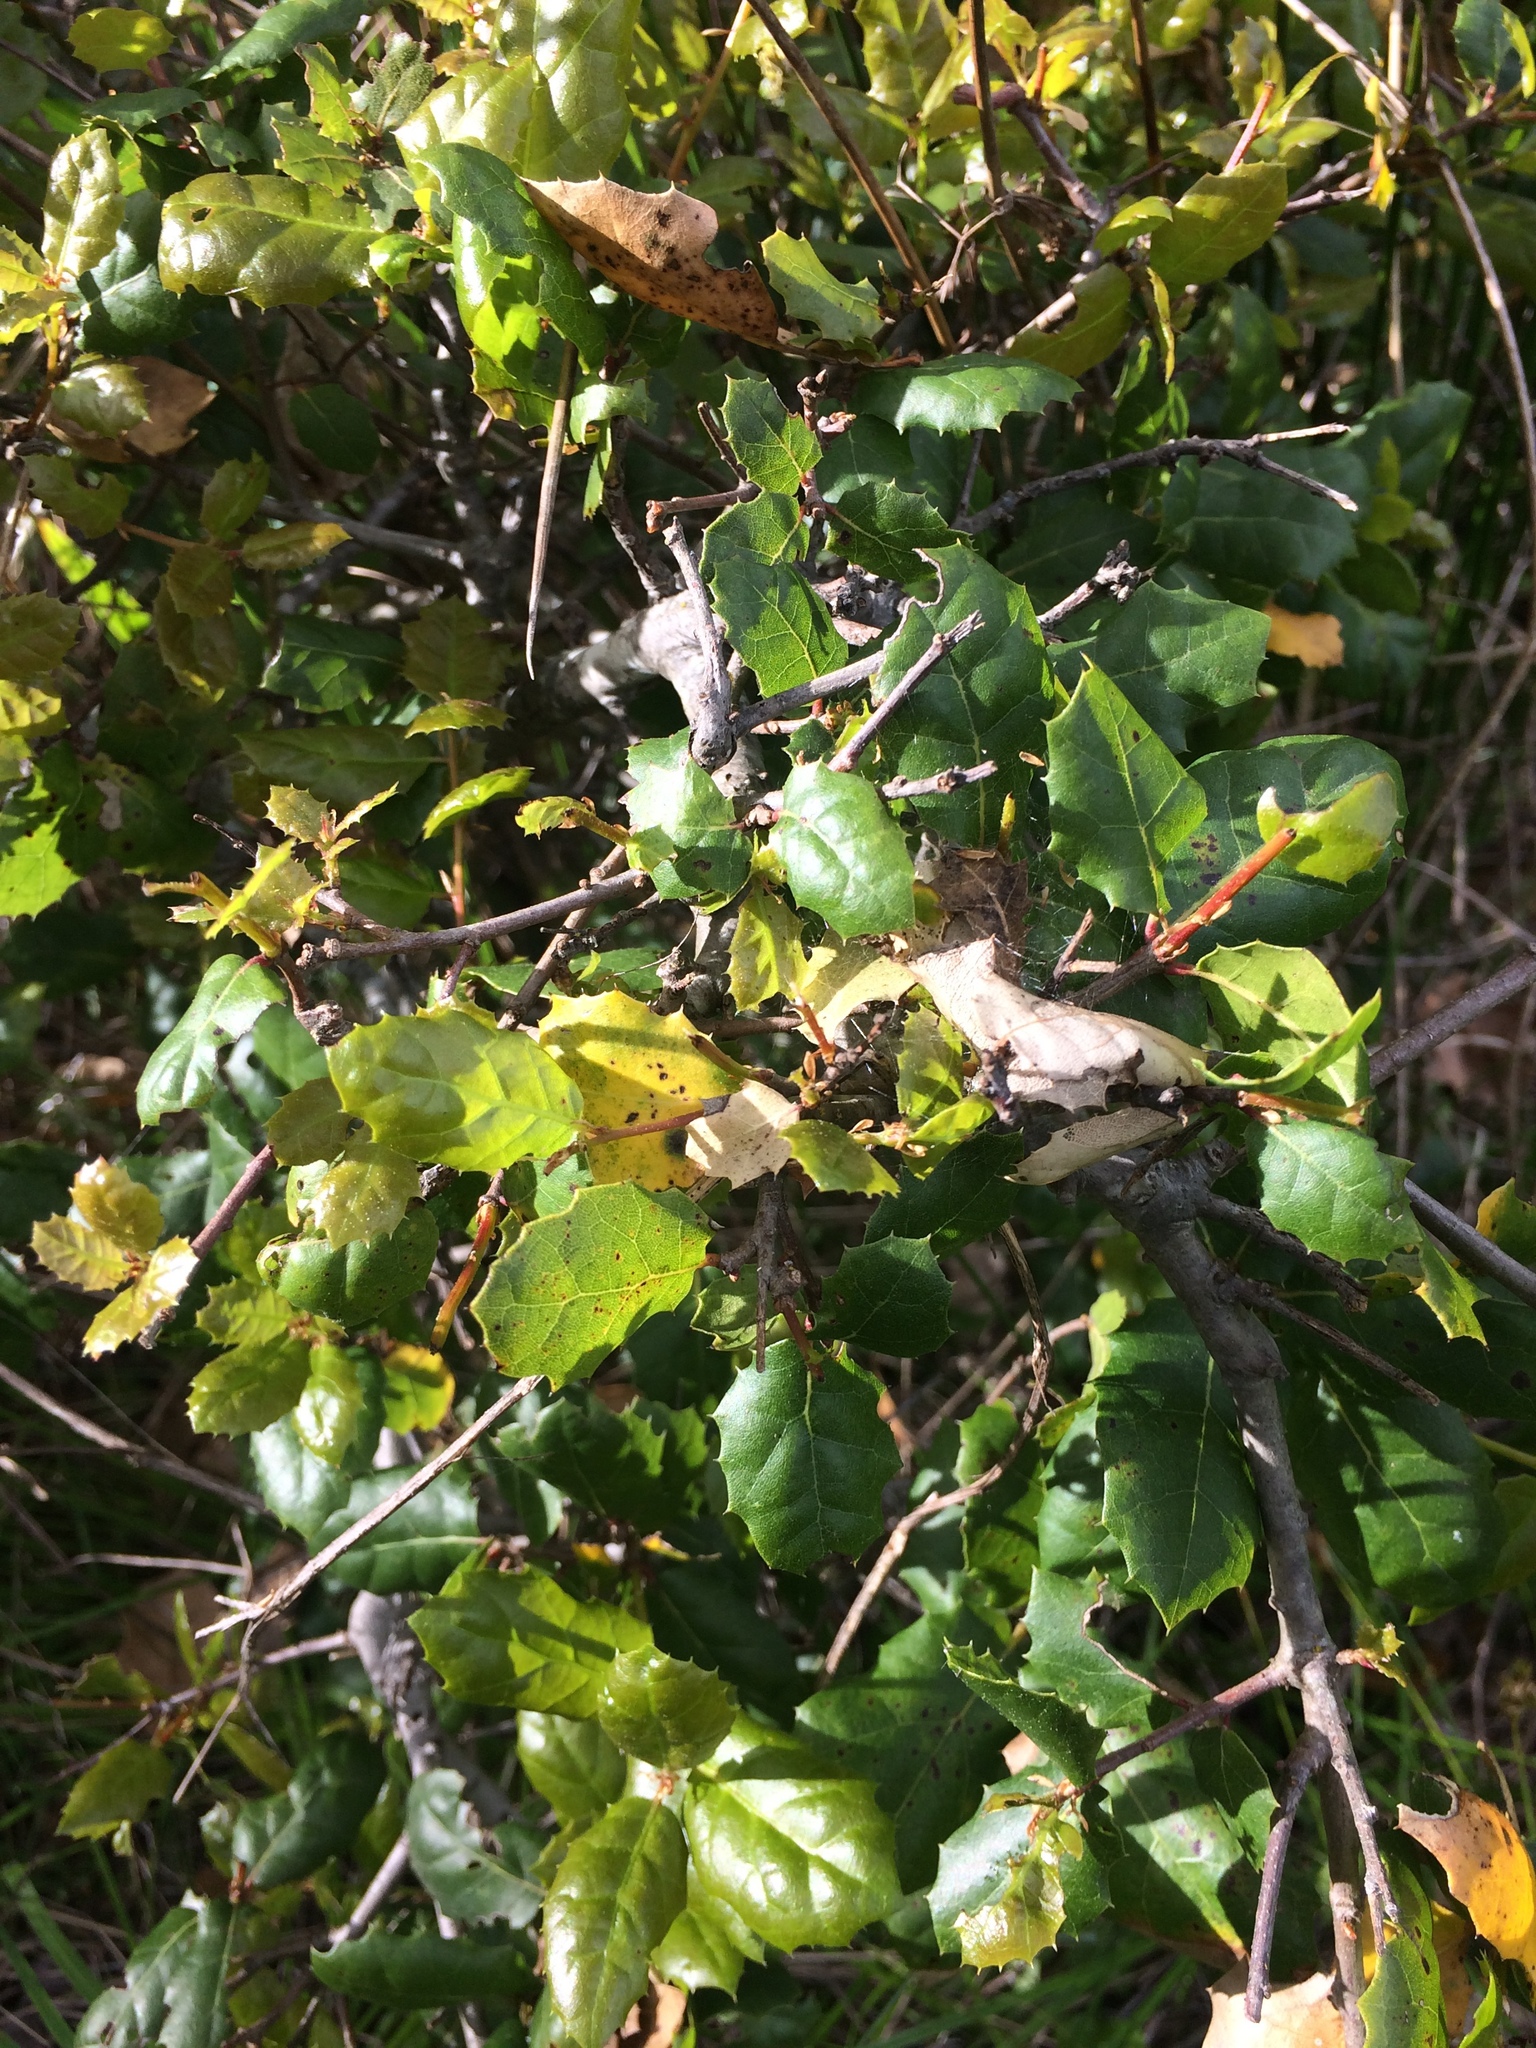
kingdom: Plantae
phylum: Tracheophyta
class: Magnoliopsida
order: Fagales
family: Fagaceae
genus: Quercus
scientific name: Quercus agrifolia
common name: California live oak
